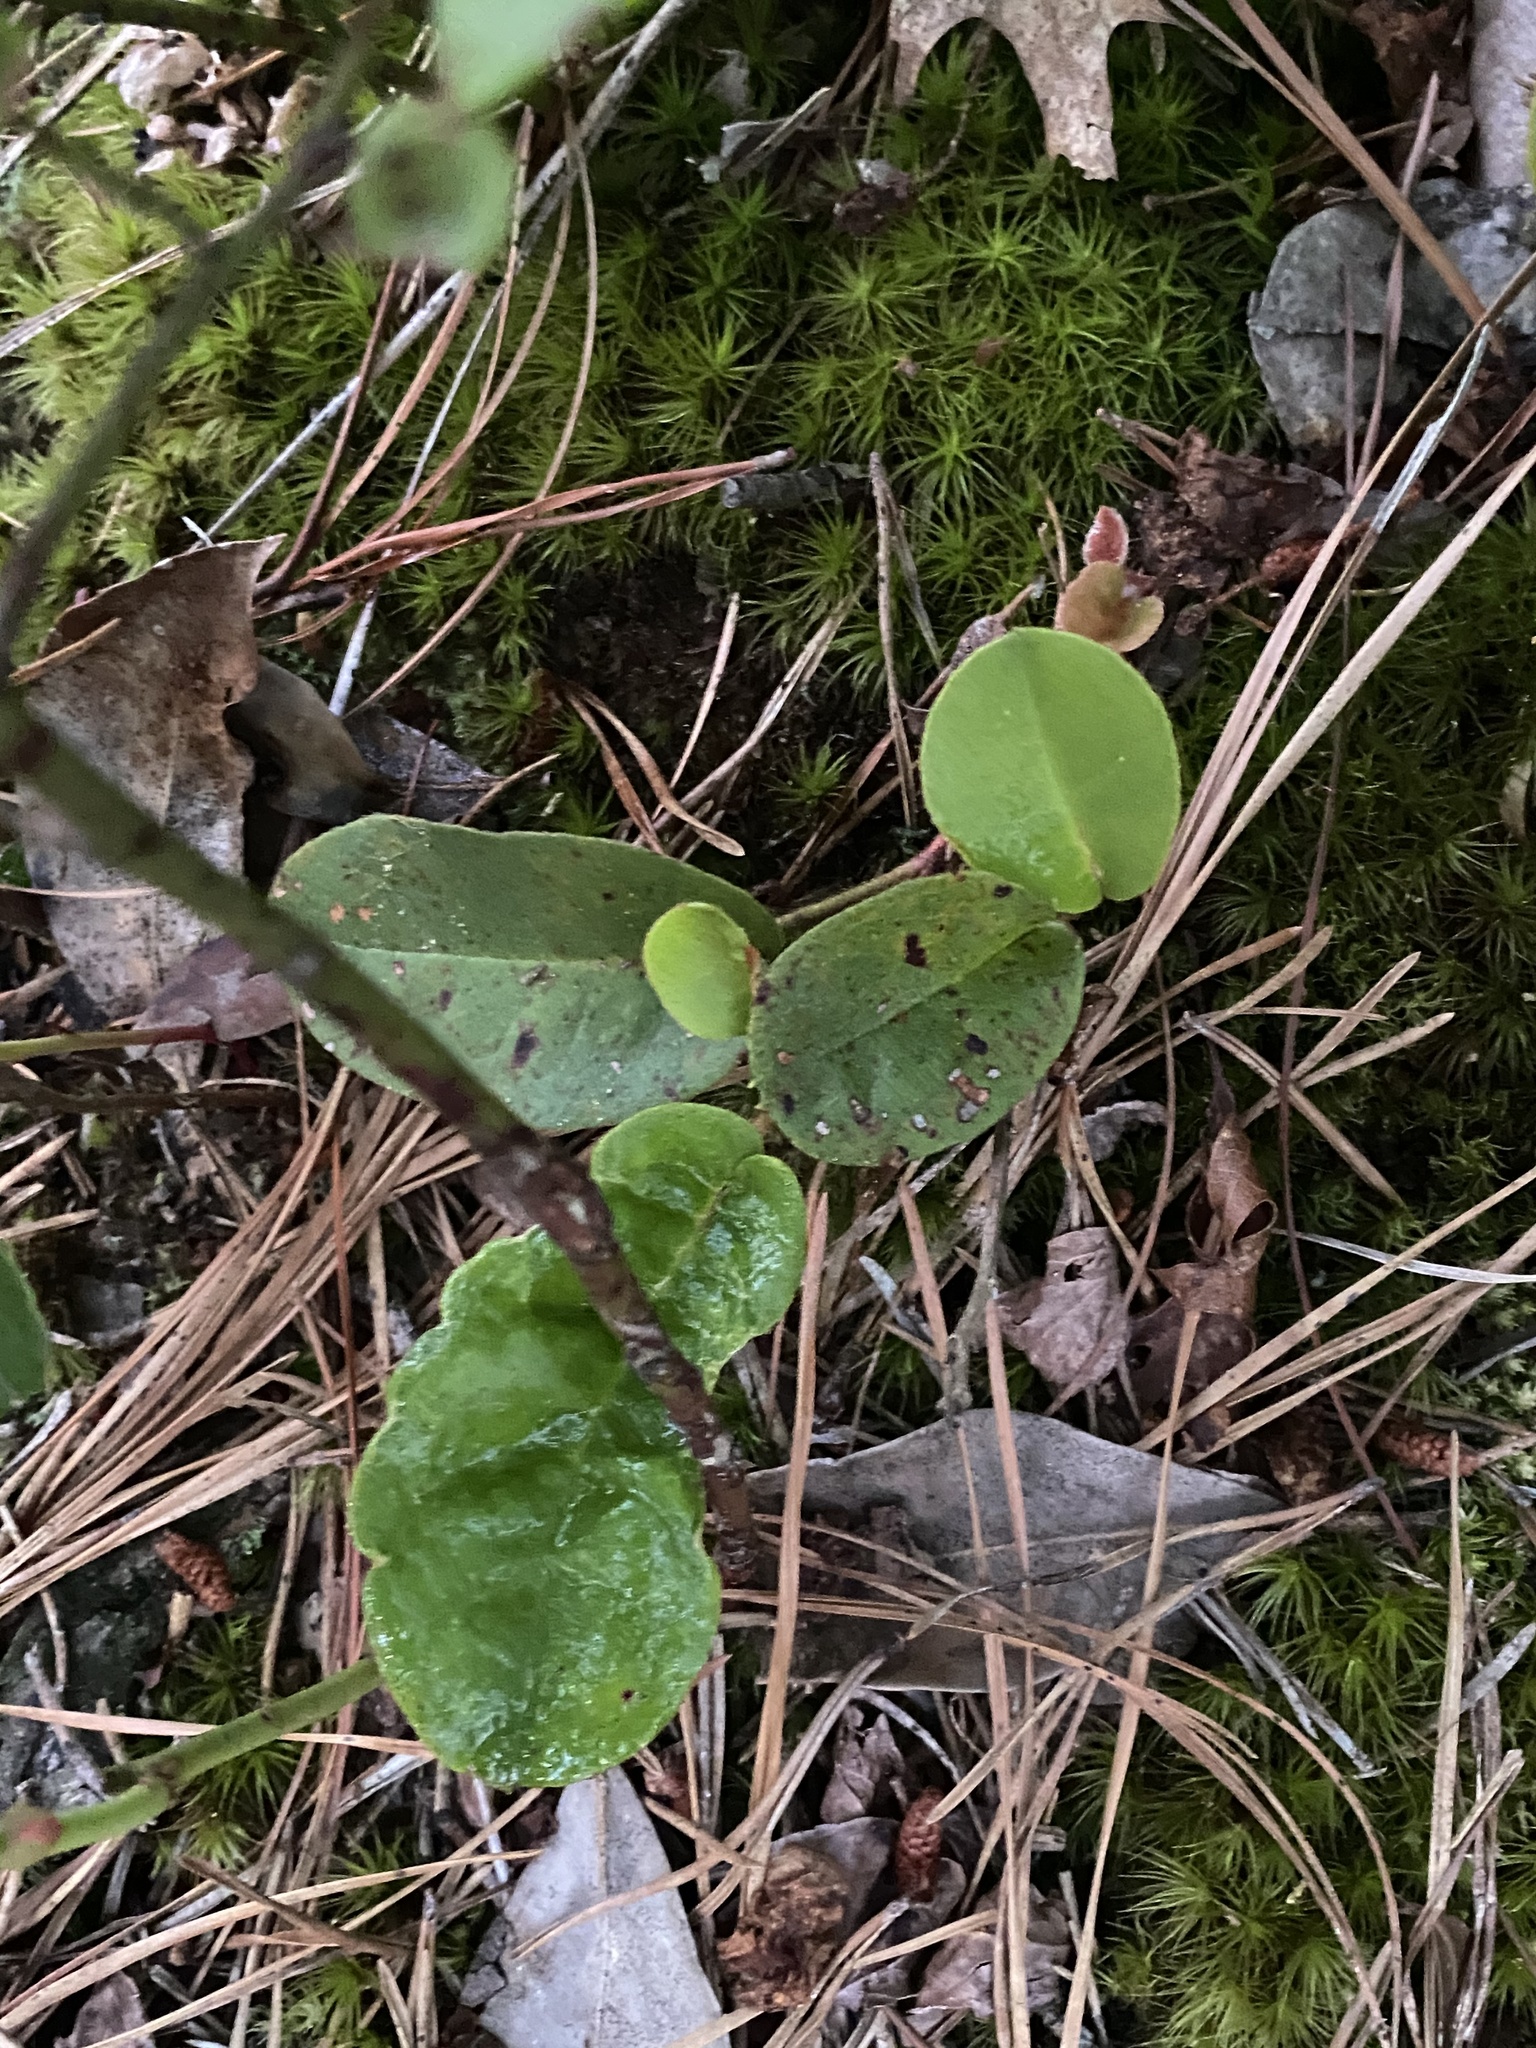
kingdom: Plantae
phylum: Tracheophyta
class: Magnoliopsida
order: Ericales
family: Ericaceae
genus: Epigaea
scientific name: Epigaea repens
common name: Gravelroot
